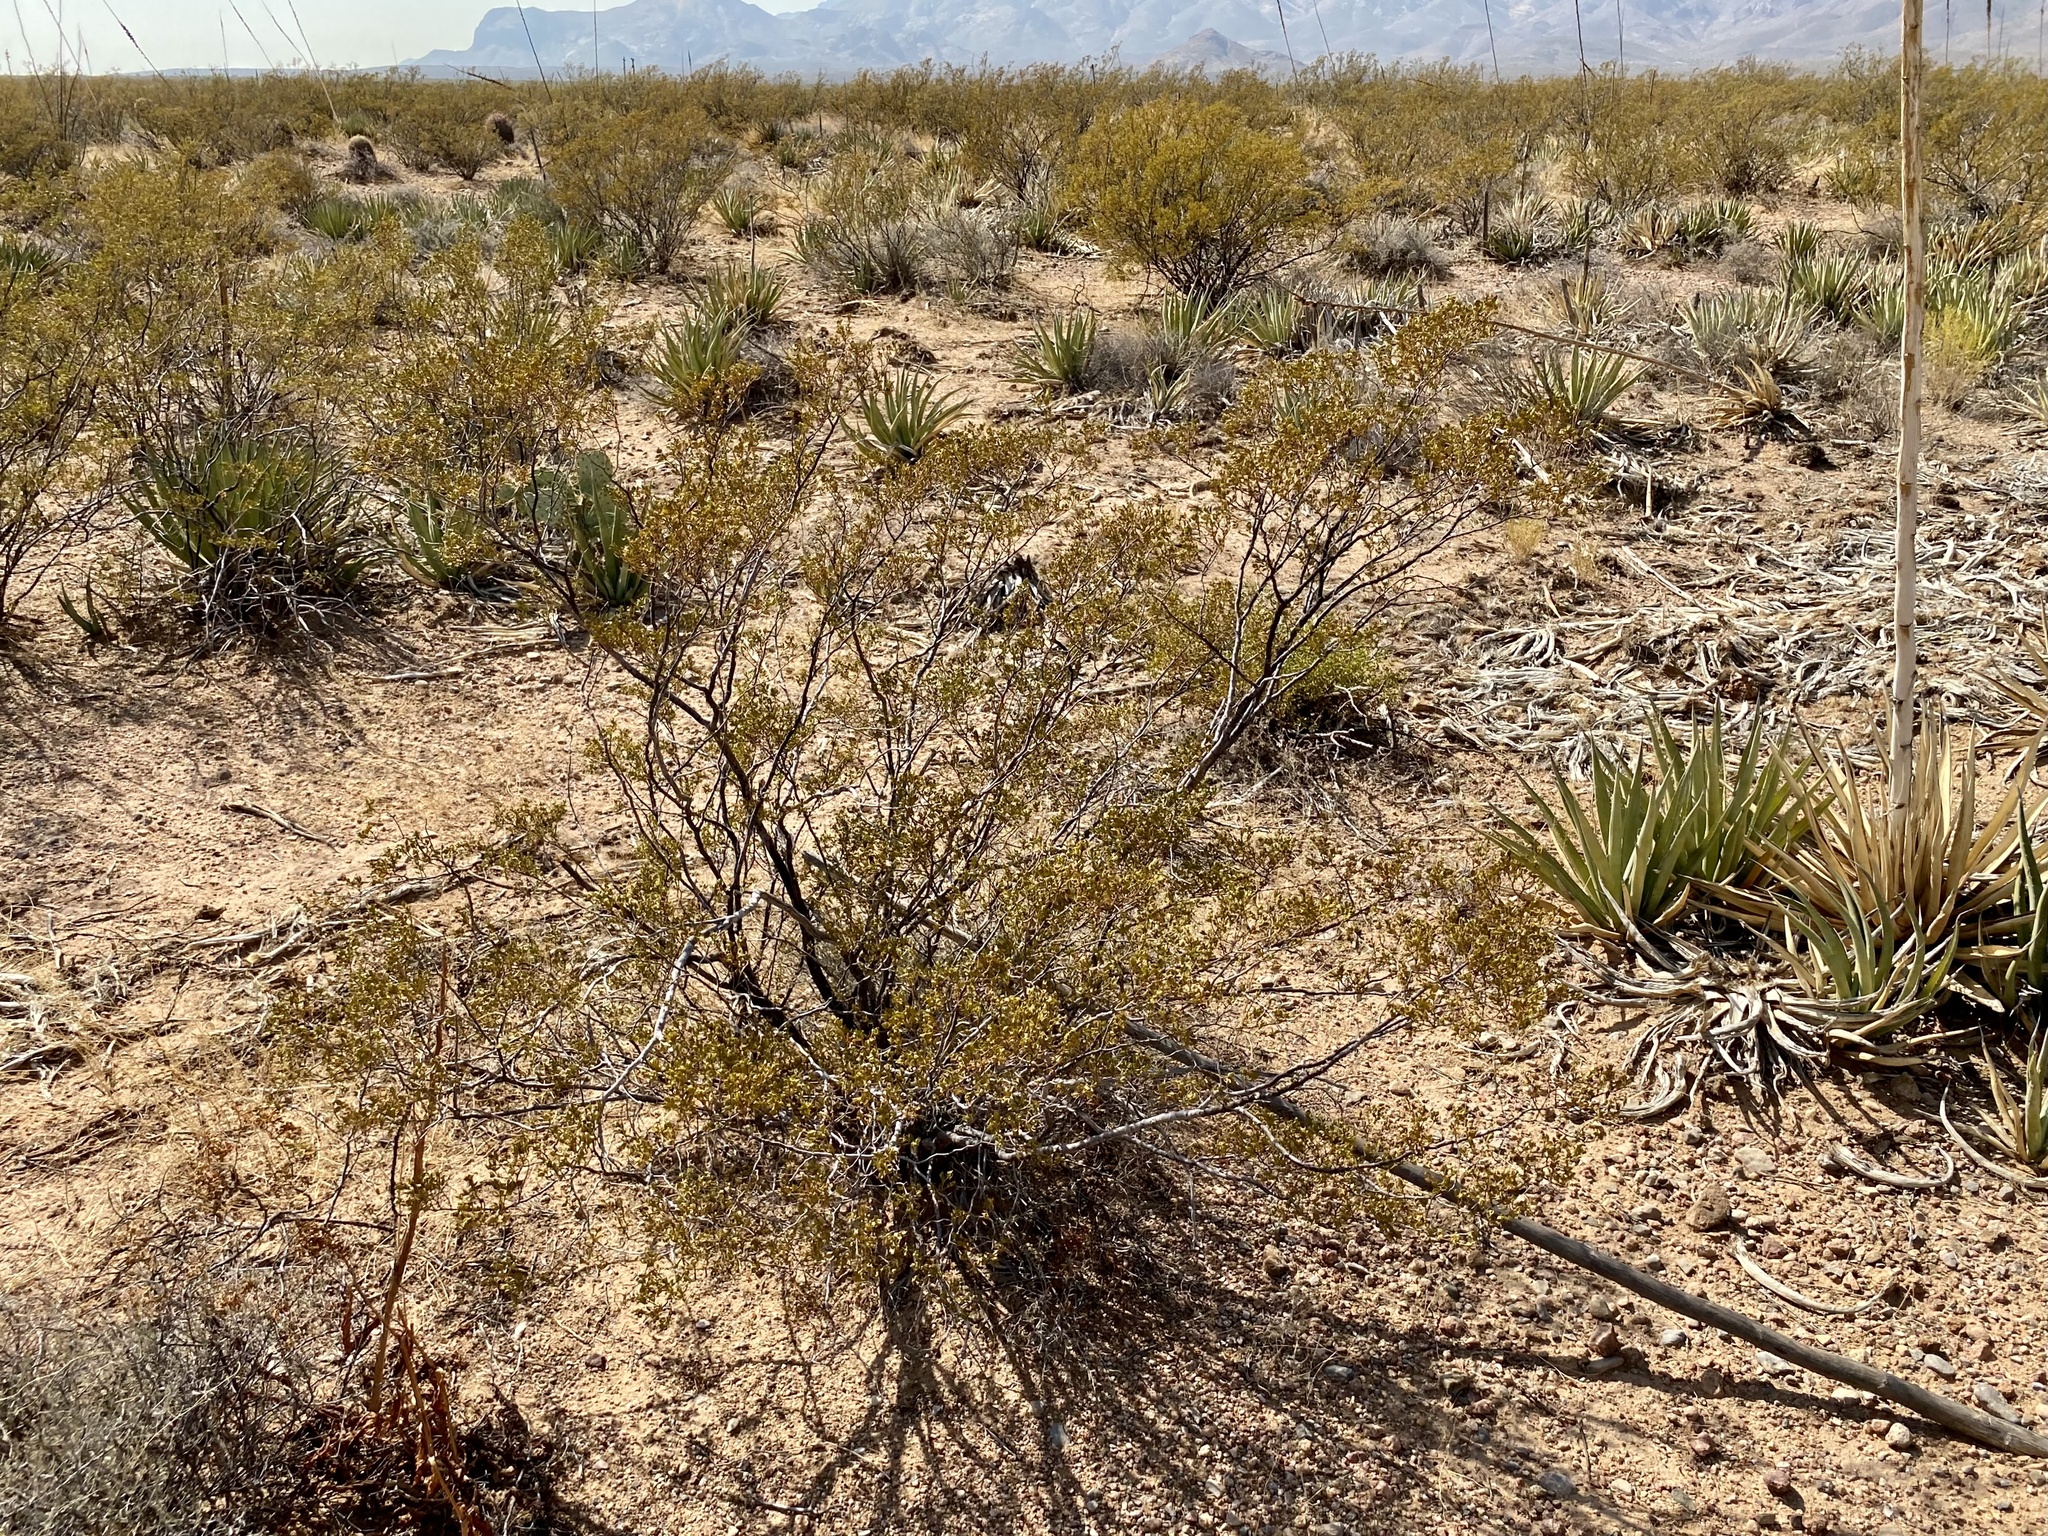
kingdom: Plantae
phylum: Tracheophyta
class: Magnoliopsida
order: Zygophyllales
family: Zygophyllaceae
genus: Larrea
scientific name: Larrea tridentata
